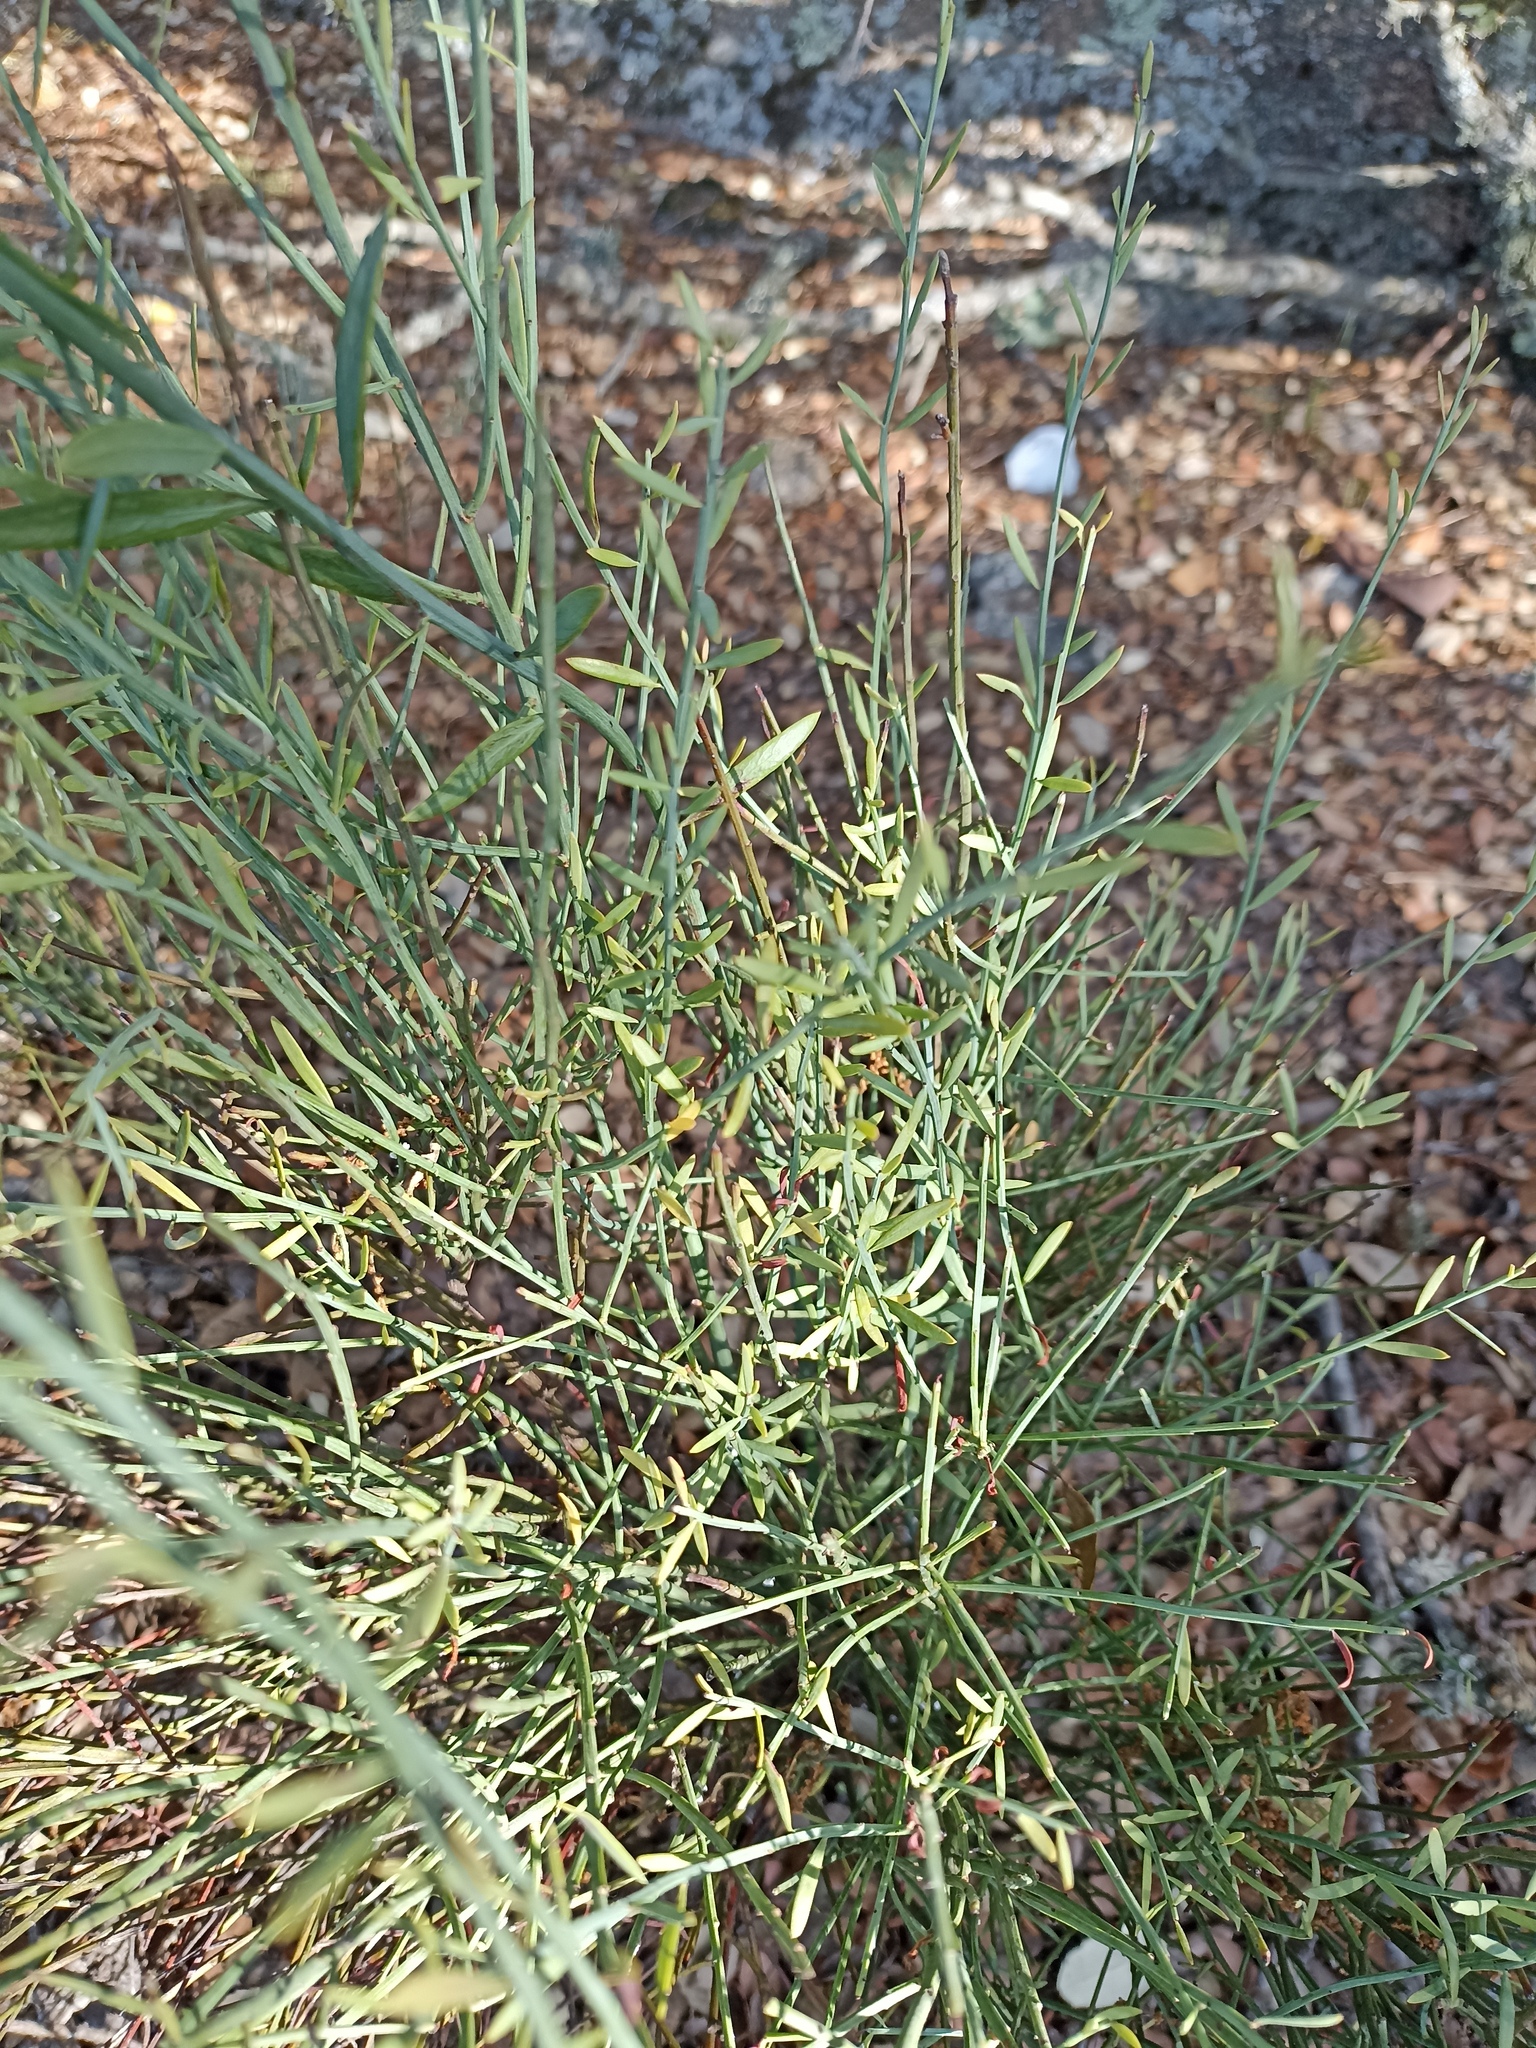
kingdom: Plantae
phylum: Tracheophyta
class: Magnoliopsida
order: Santalales
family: Santalaceae
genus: Osyris
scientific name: Osyris alba
